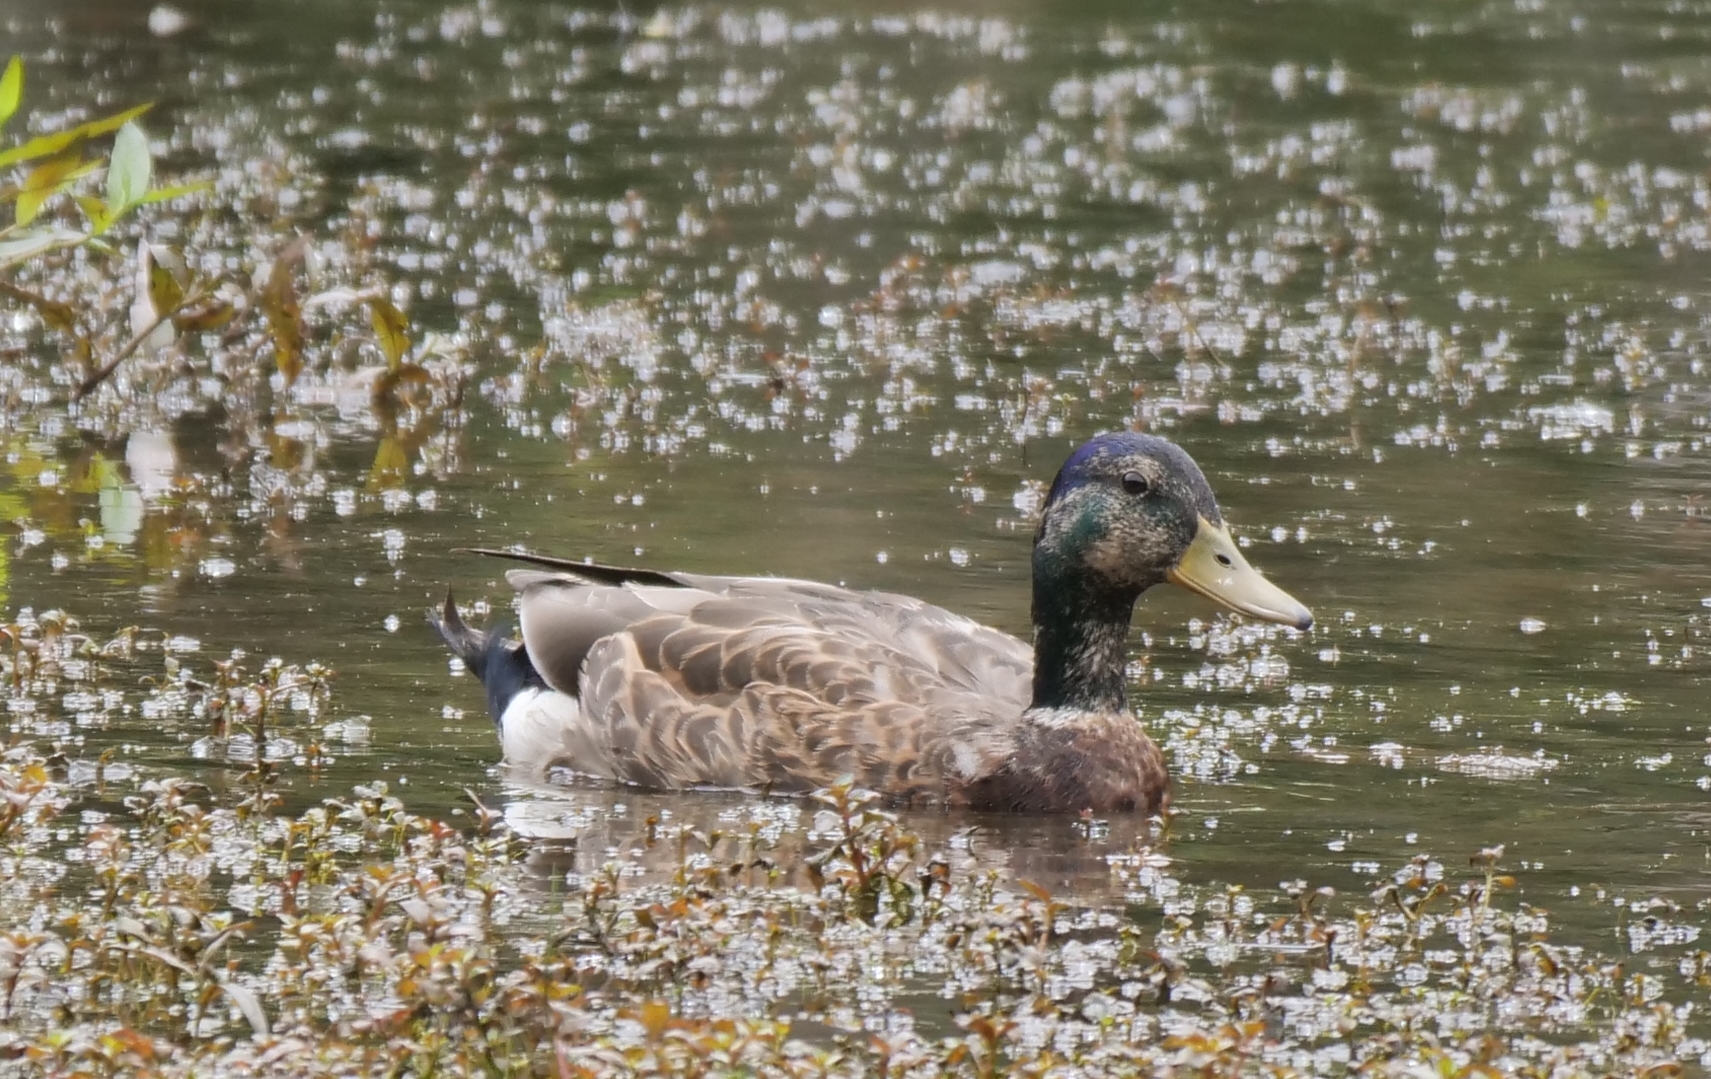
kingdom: Animalia
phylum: Chordata
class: Aves
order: Anseriformes
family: Anatidae
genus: Anas
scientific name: Anas platyrhynchos
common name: Mallard
